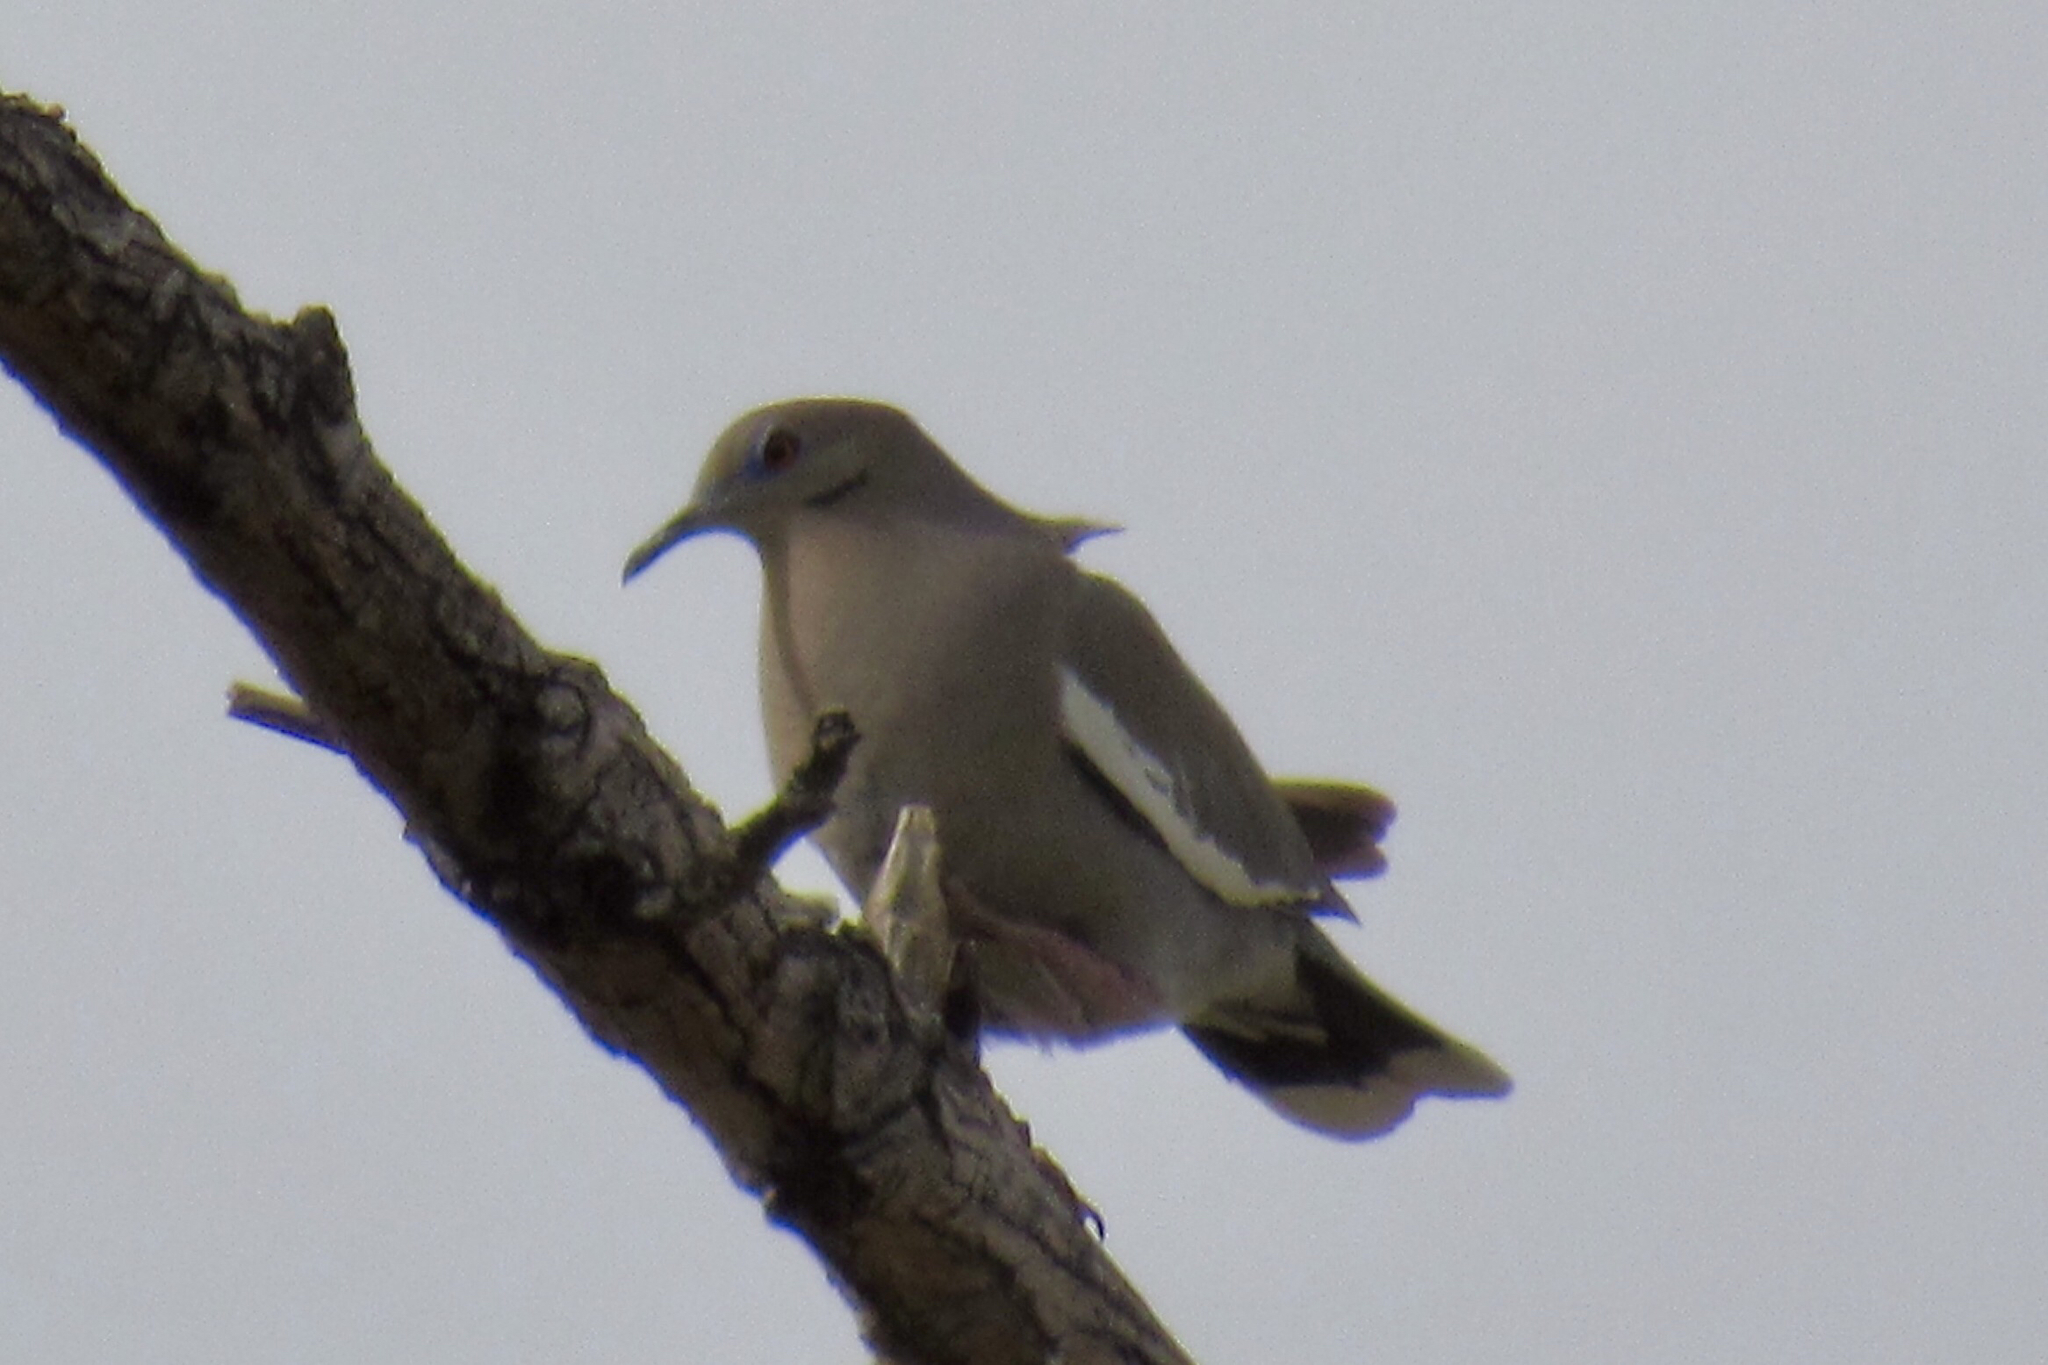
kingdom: Animalia
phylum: Chordata
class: Aves
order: Columbiformes
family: Columbidae
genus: Zenaida
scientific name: Zenaida asiatica
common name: White-winged dove
